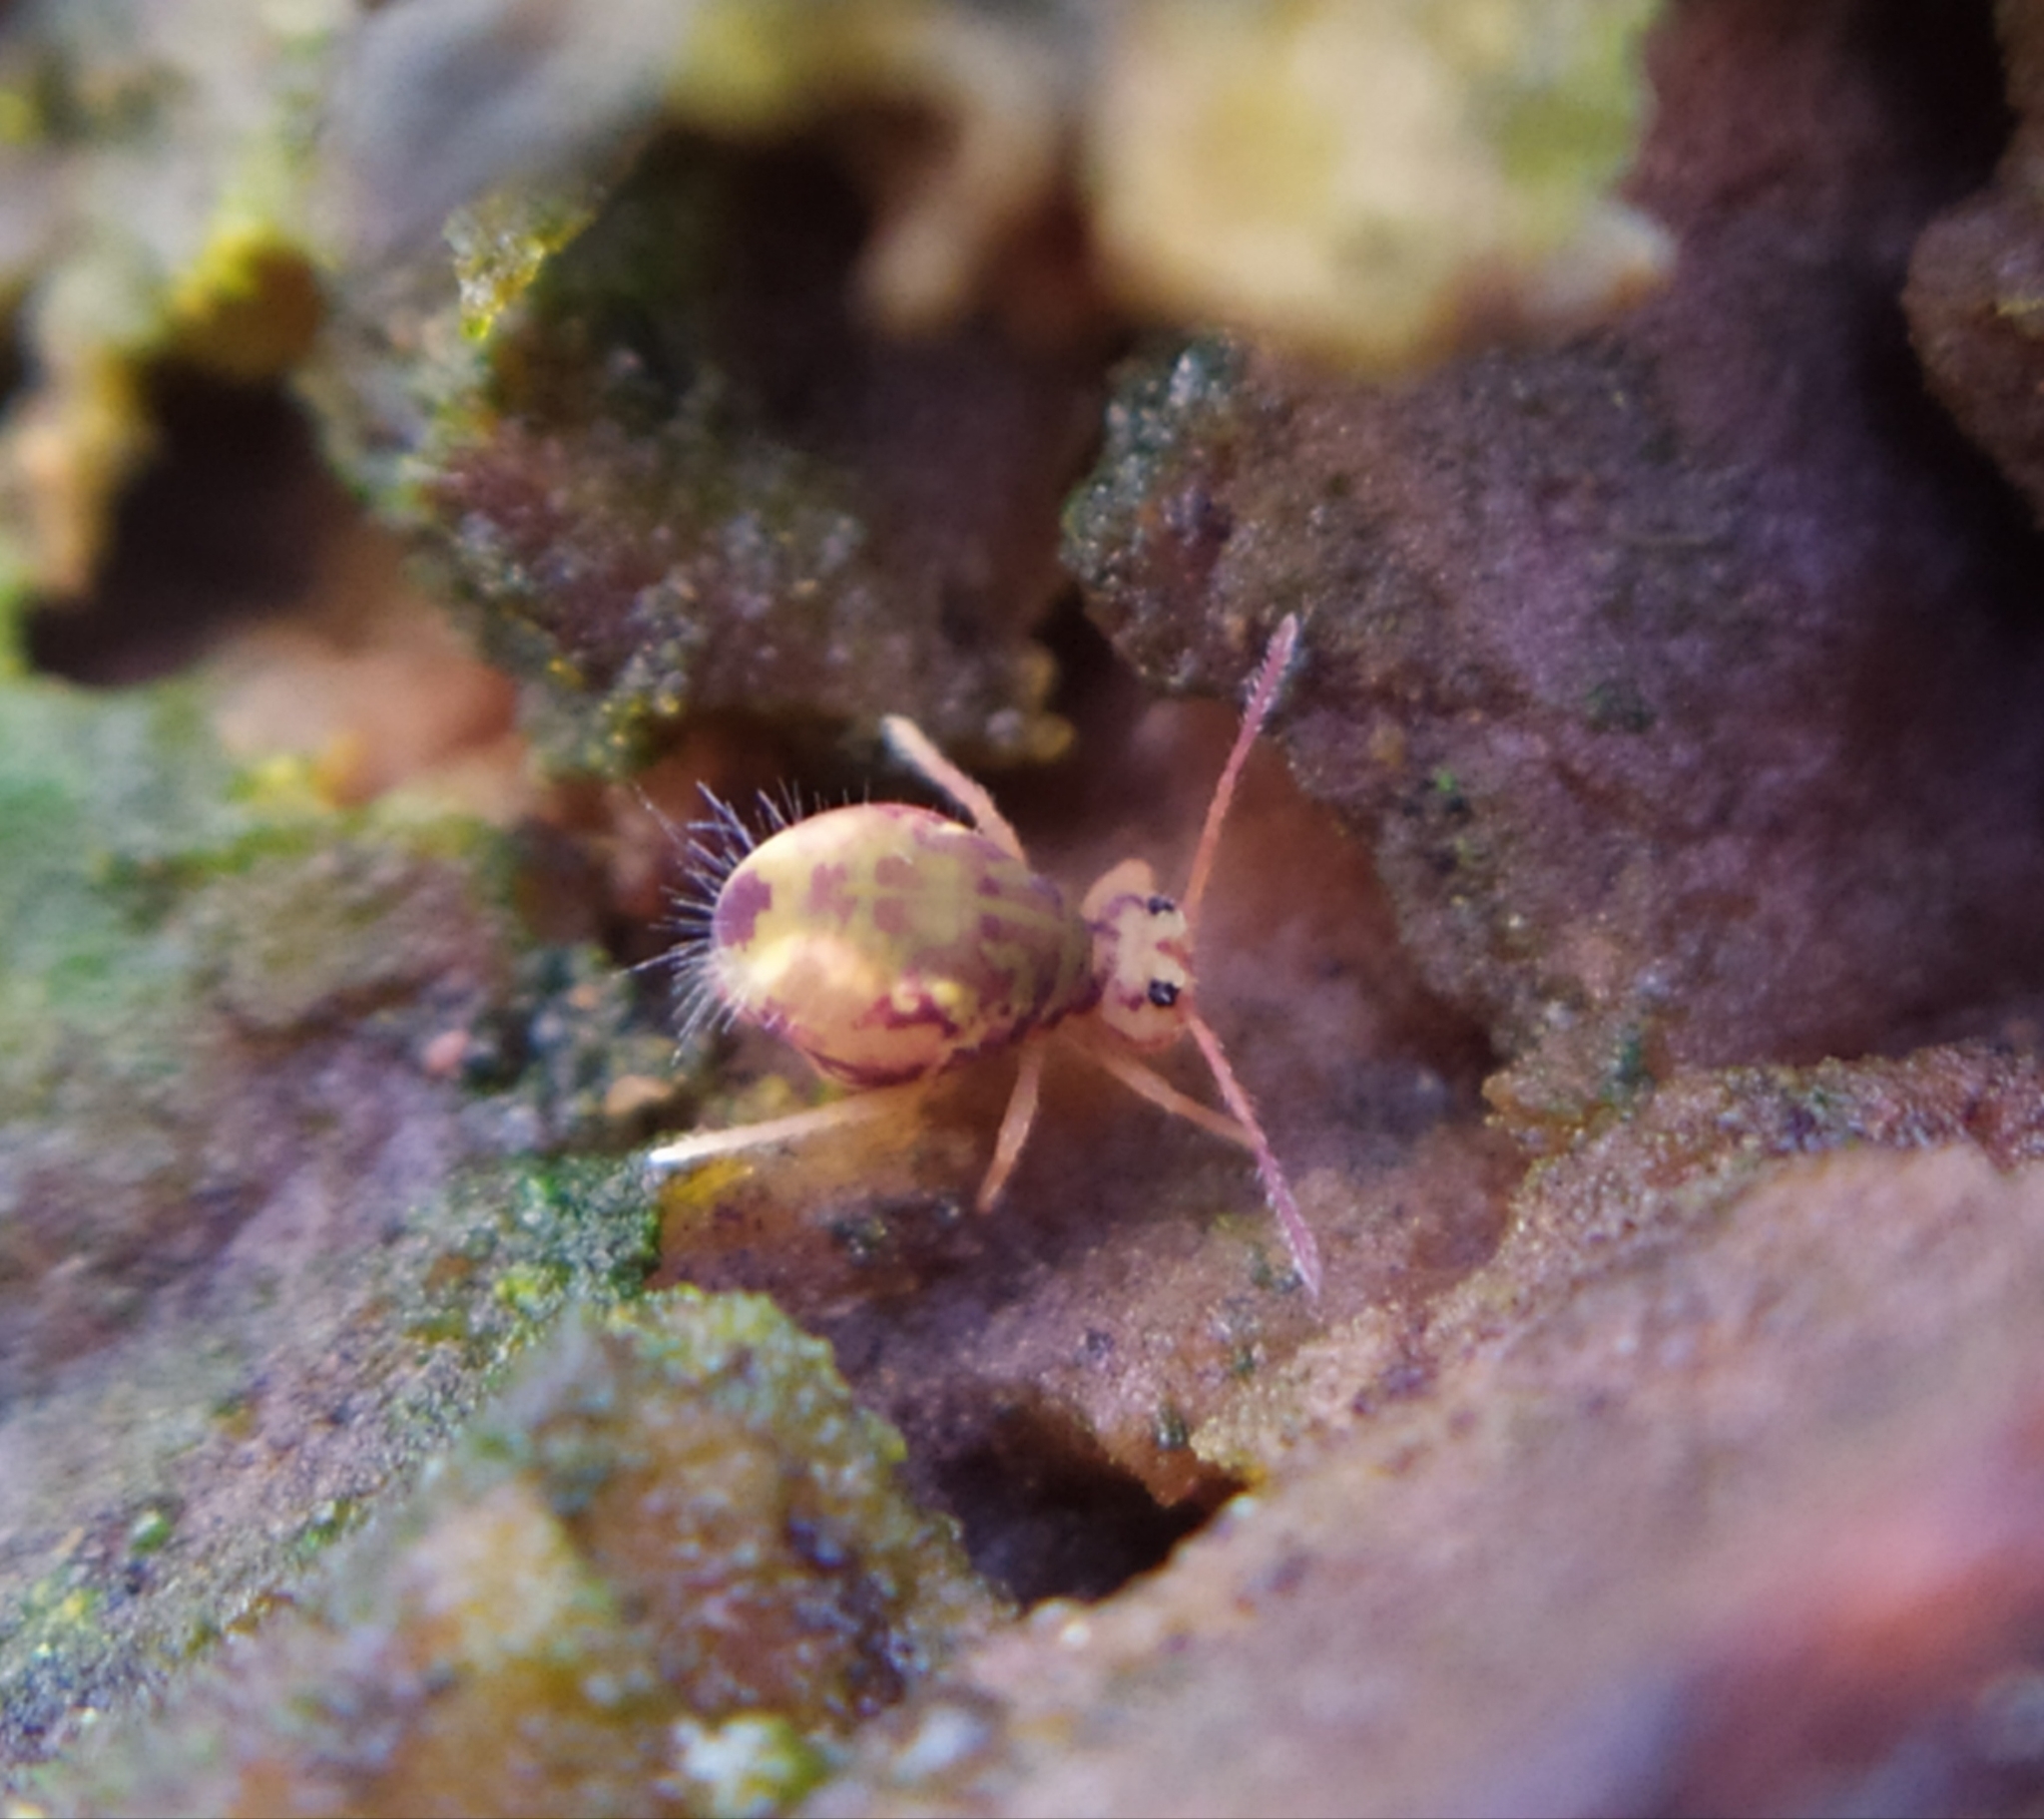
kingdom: Animalia
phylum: Arthropoda
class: Collembola
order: Symphypleona
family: Dicyrtomidae
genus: Dicyrtomina
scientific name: Dicyrtomina ornata
